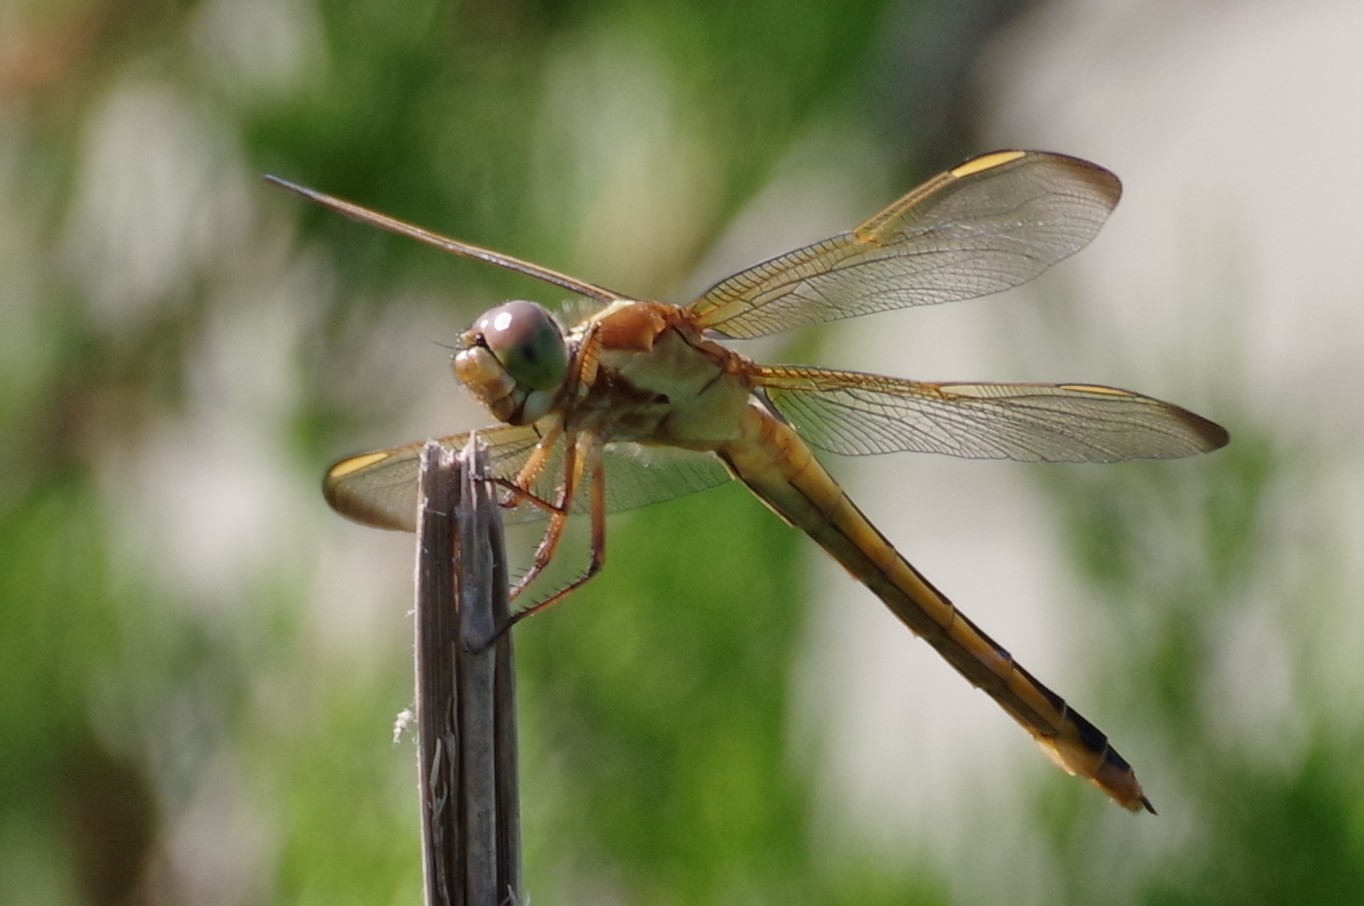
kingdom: Animalia
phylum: Arthropoda
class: Insecta
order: Odonata
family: Libellulidae
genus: Libellula
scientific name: Libellula needhami
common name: Needham's skimmer
